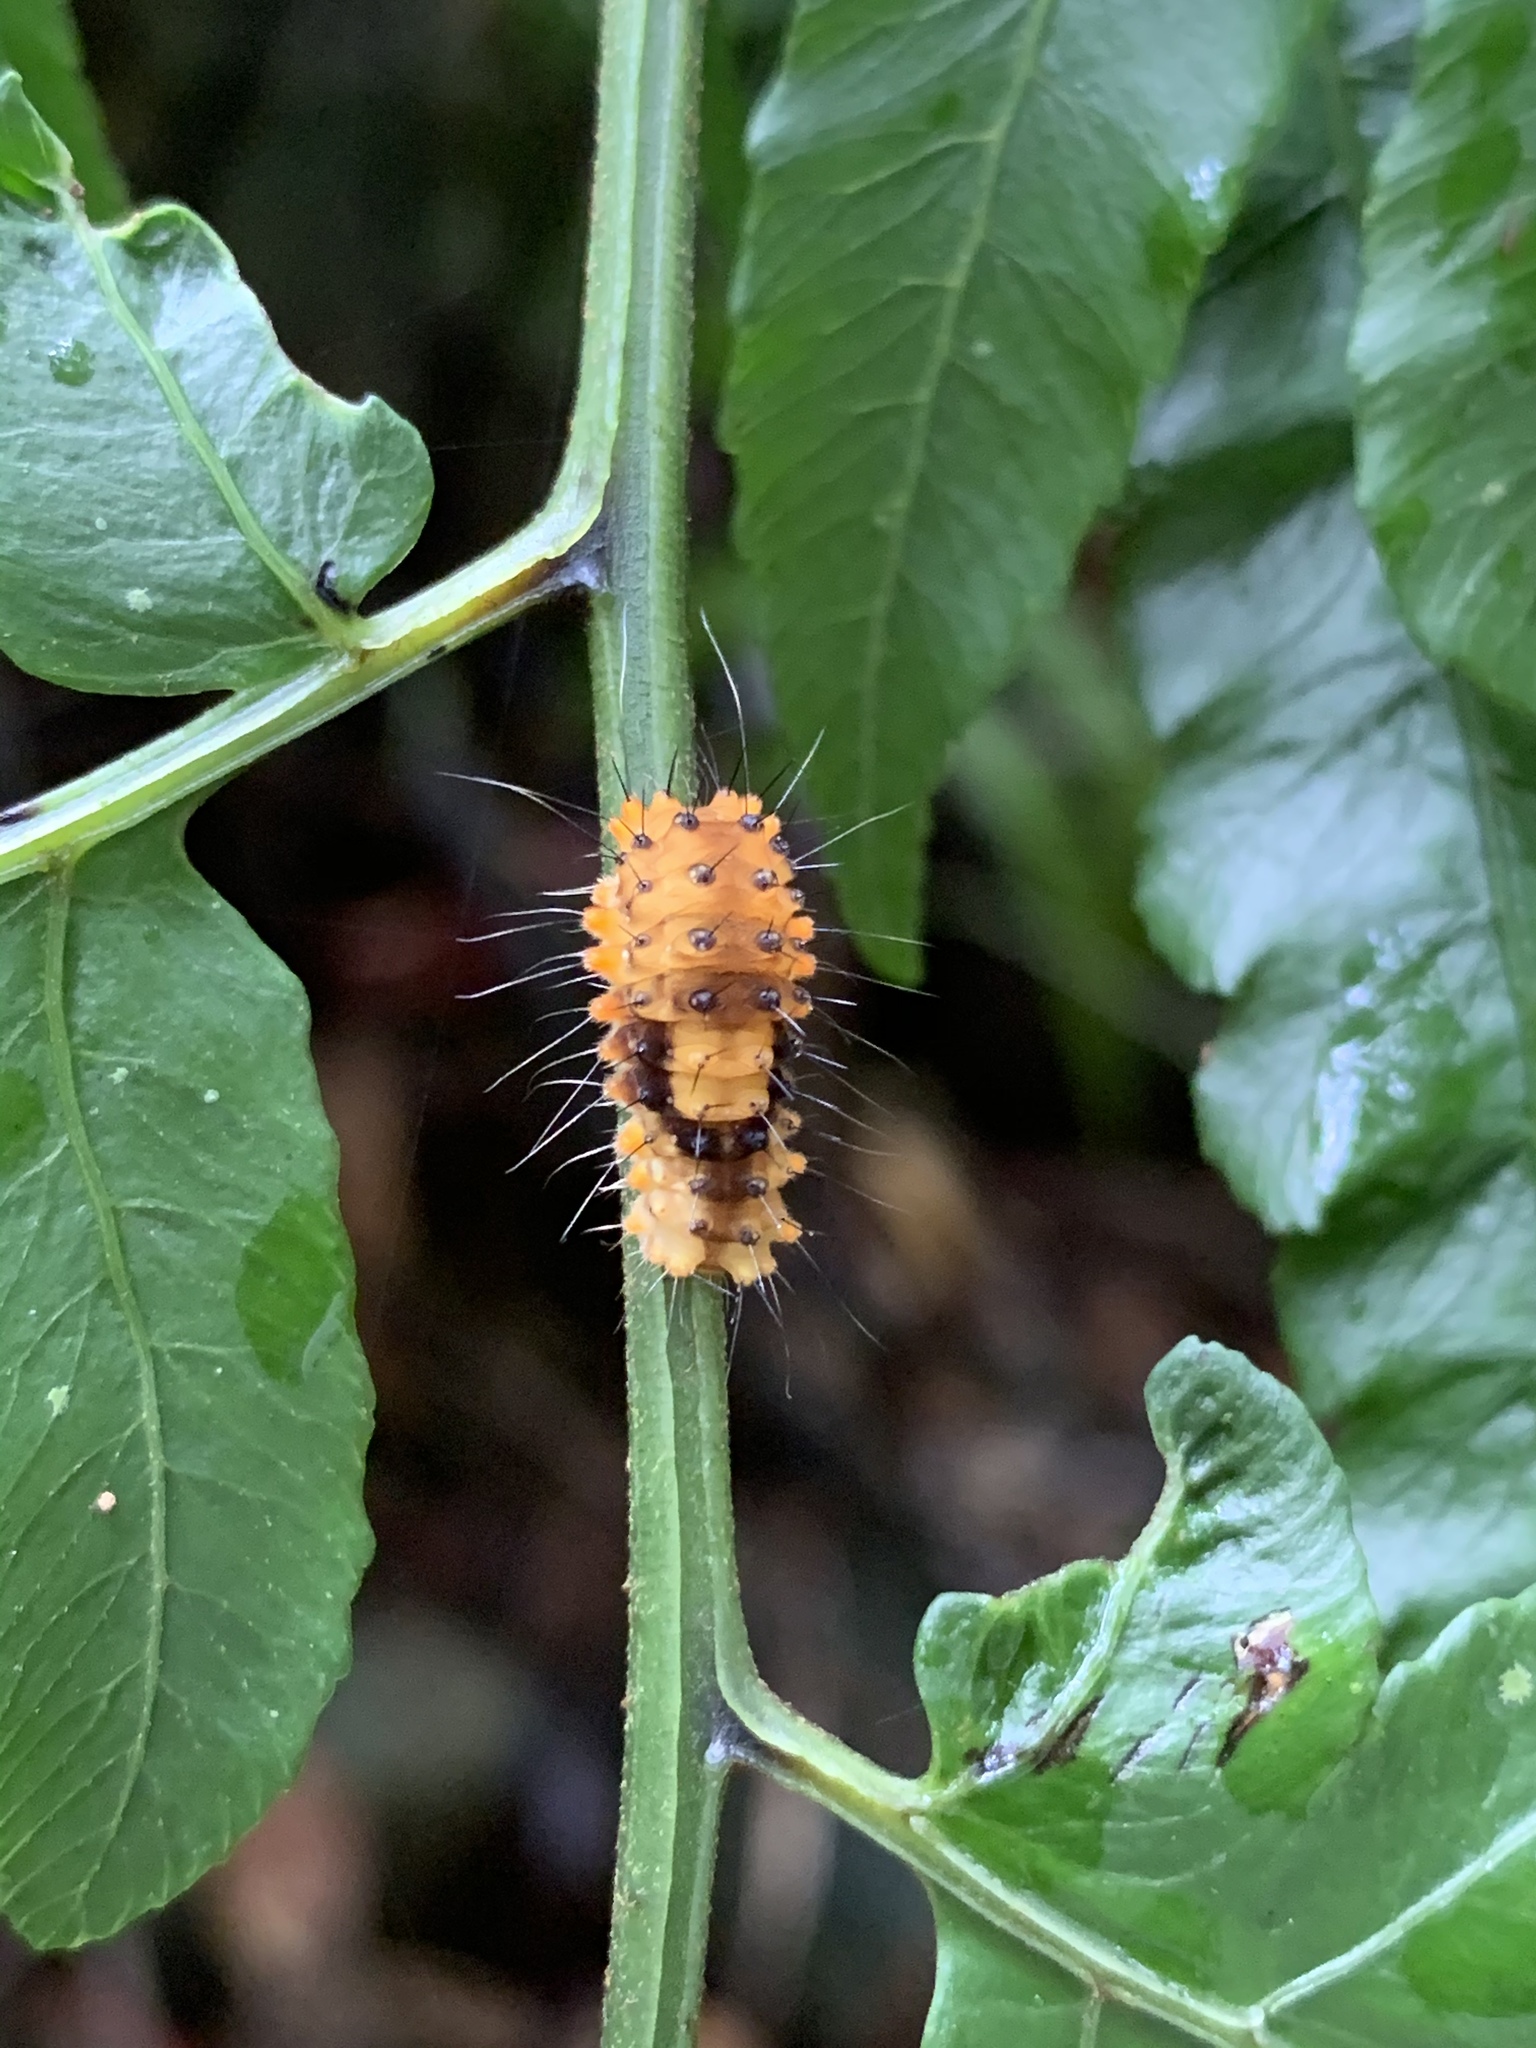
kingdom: Animalia
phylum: Arthropoda
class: Insecta
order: Lepidoptera
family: Zygaenidae
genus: Eterusia
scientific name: Eterusia aedea
